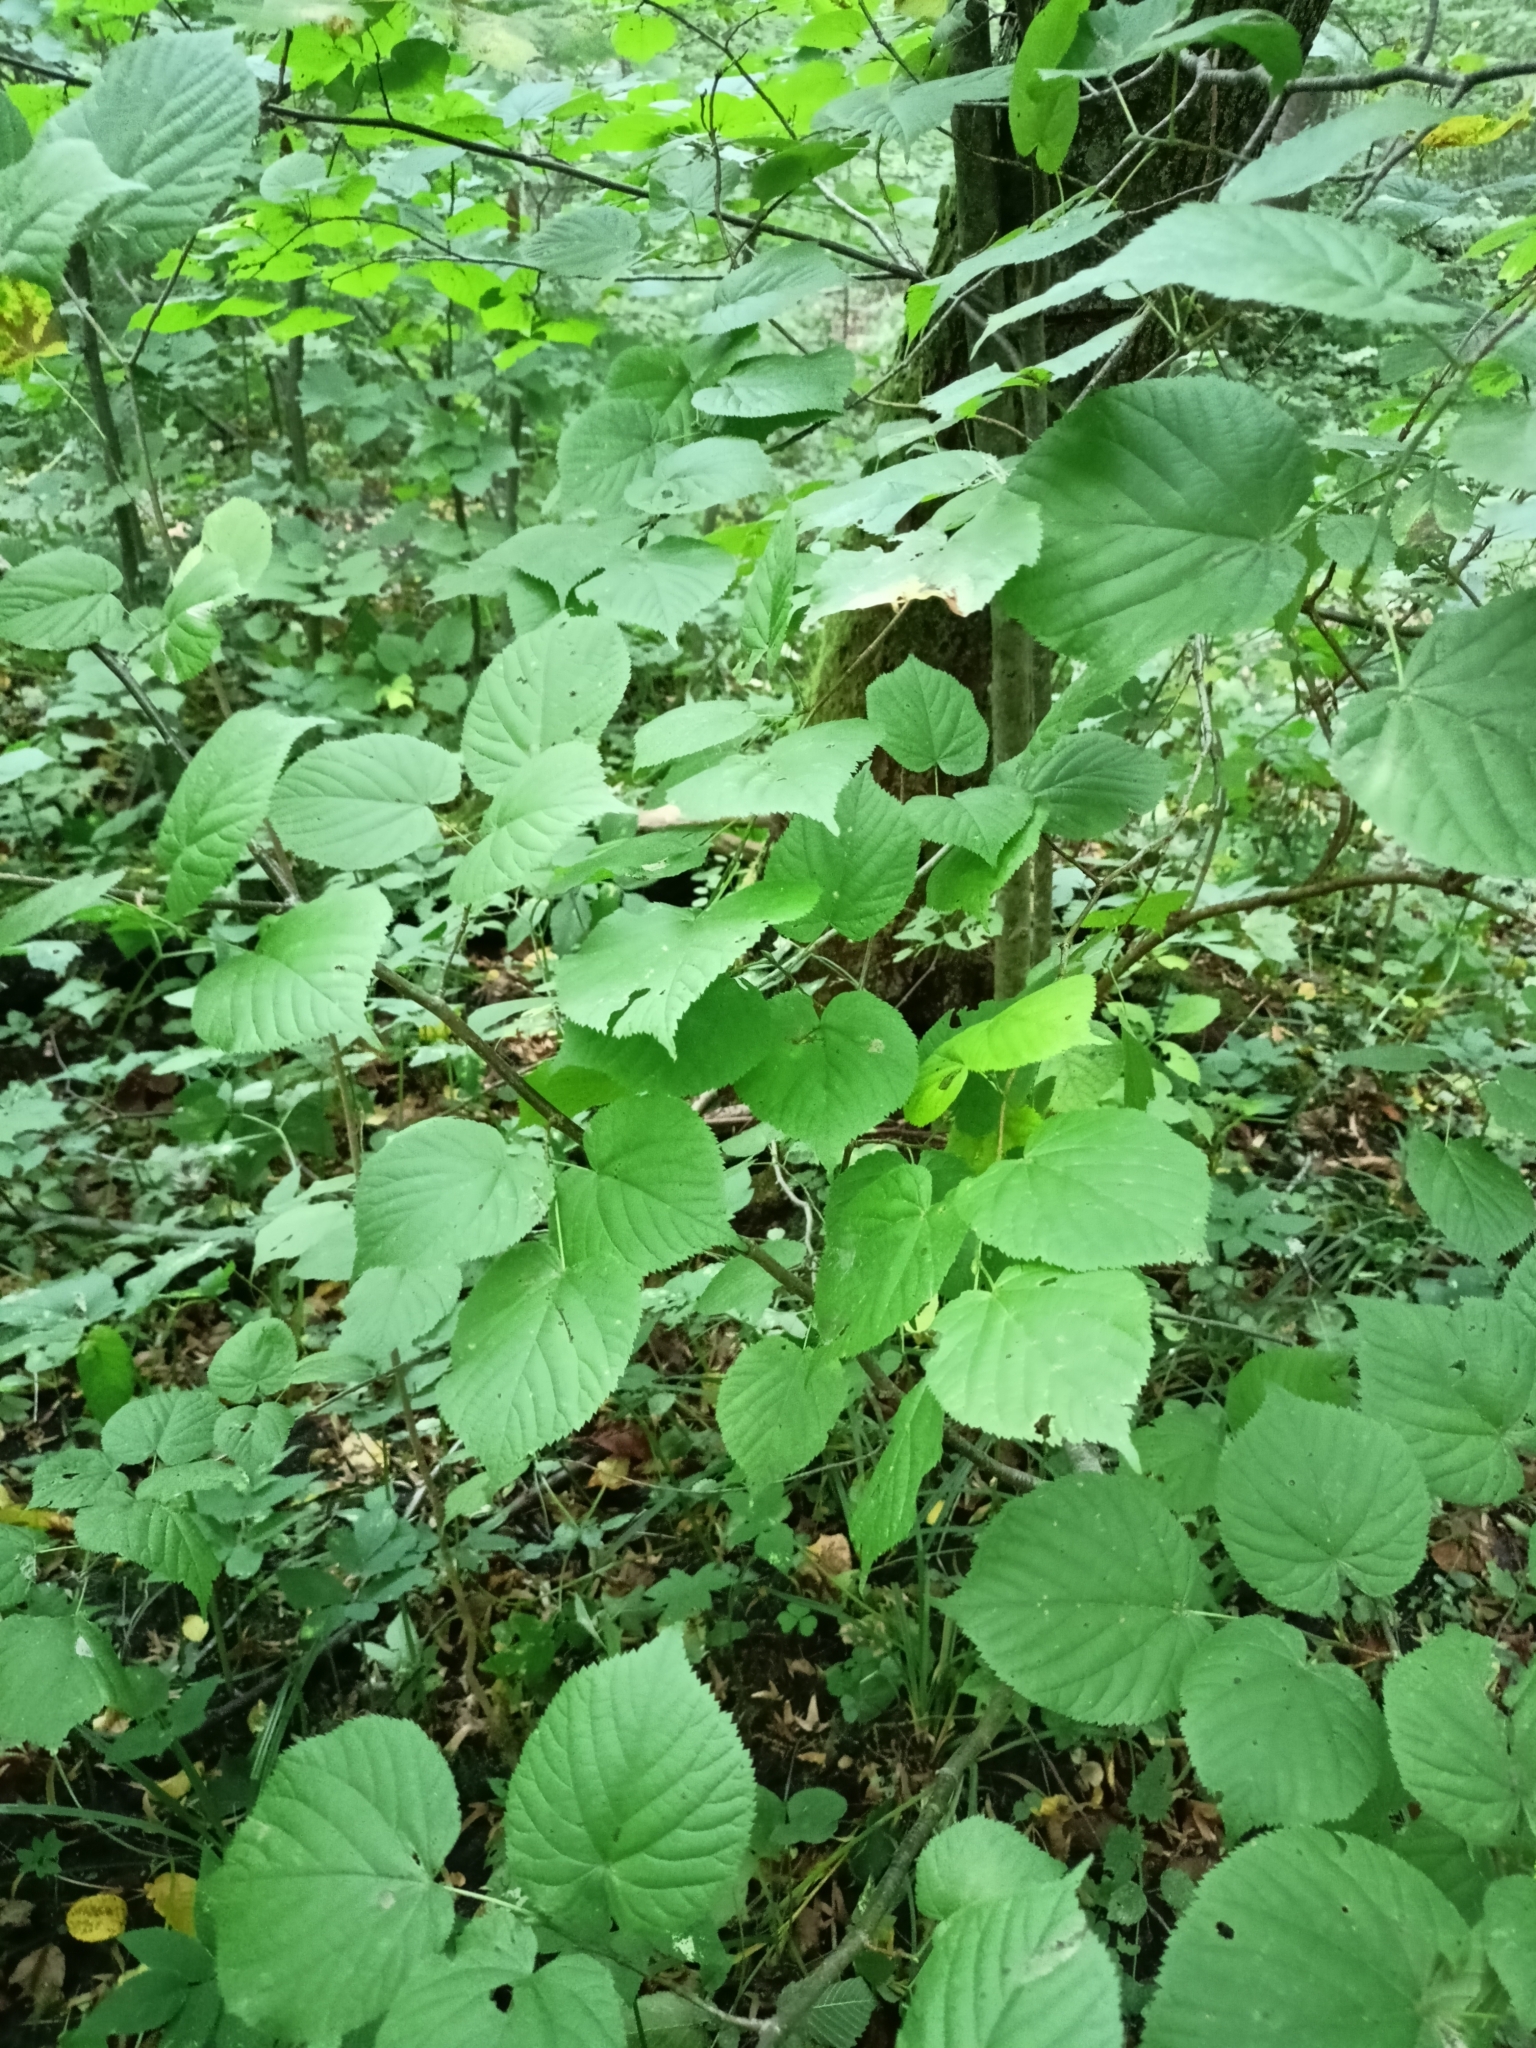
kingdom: Plantae
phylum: Tracheophyta
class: Magnoliopsida
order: Malvales
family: Malvaceae
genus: Tilia
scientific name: Tilia cordata
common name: Small-leaved lime
